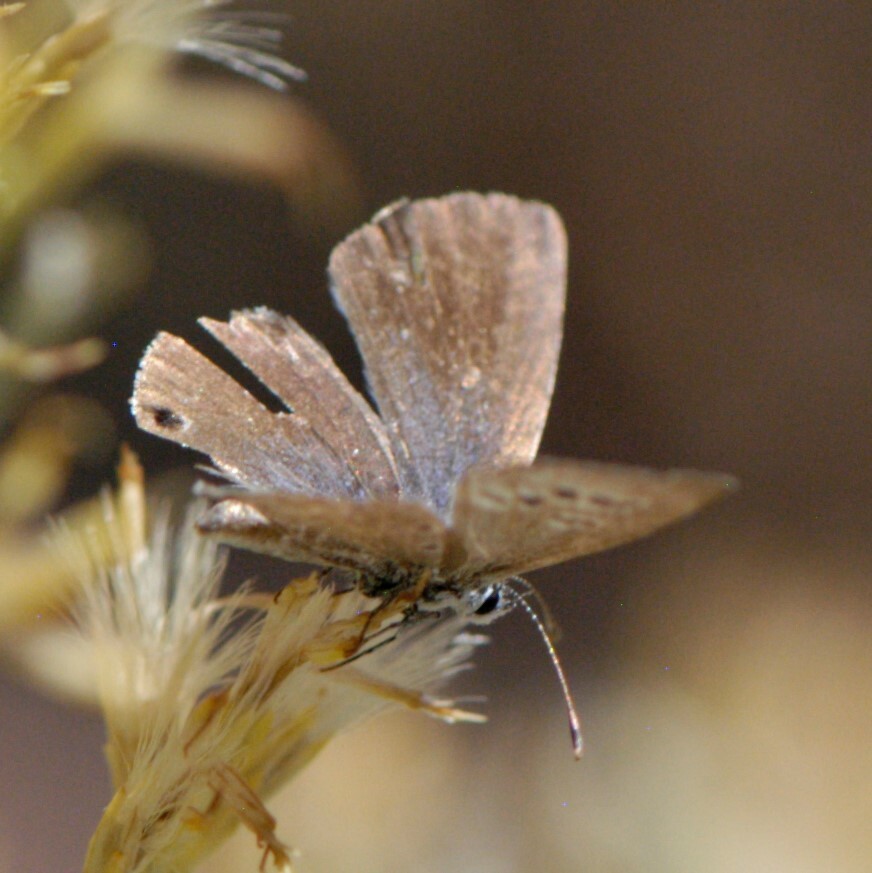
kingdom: Animalia
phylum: Arthropoda
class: Insecta
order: Lepidoptera
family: Lycaenidae
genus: Echinargus
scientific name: Echinargus isola
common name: Reakirt's blue
